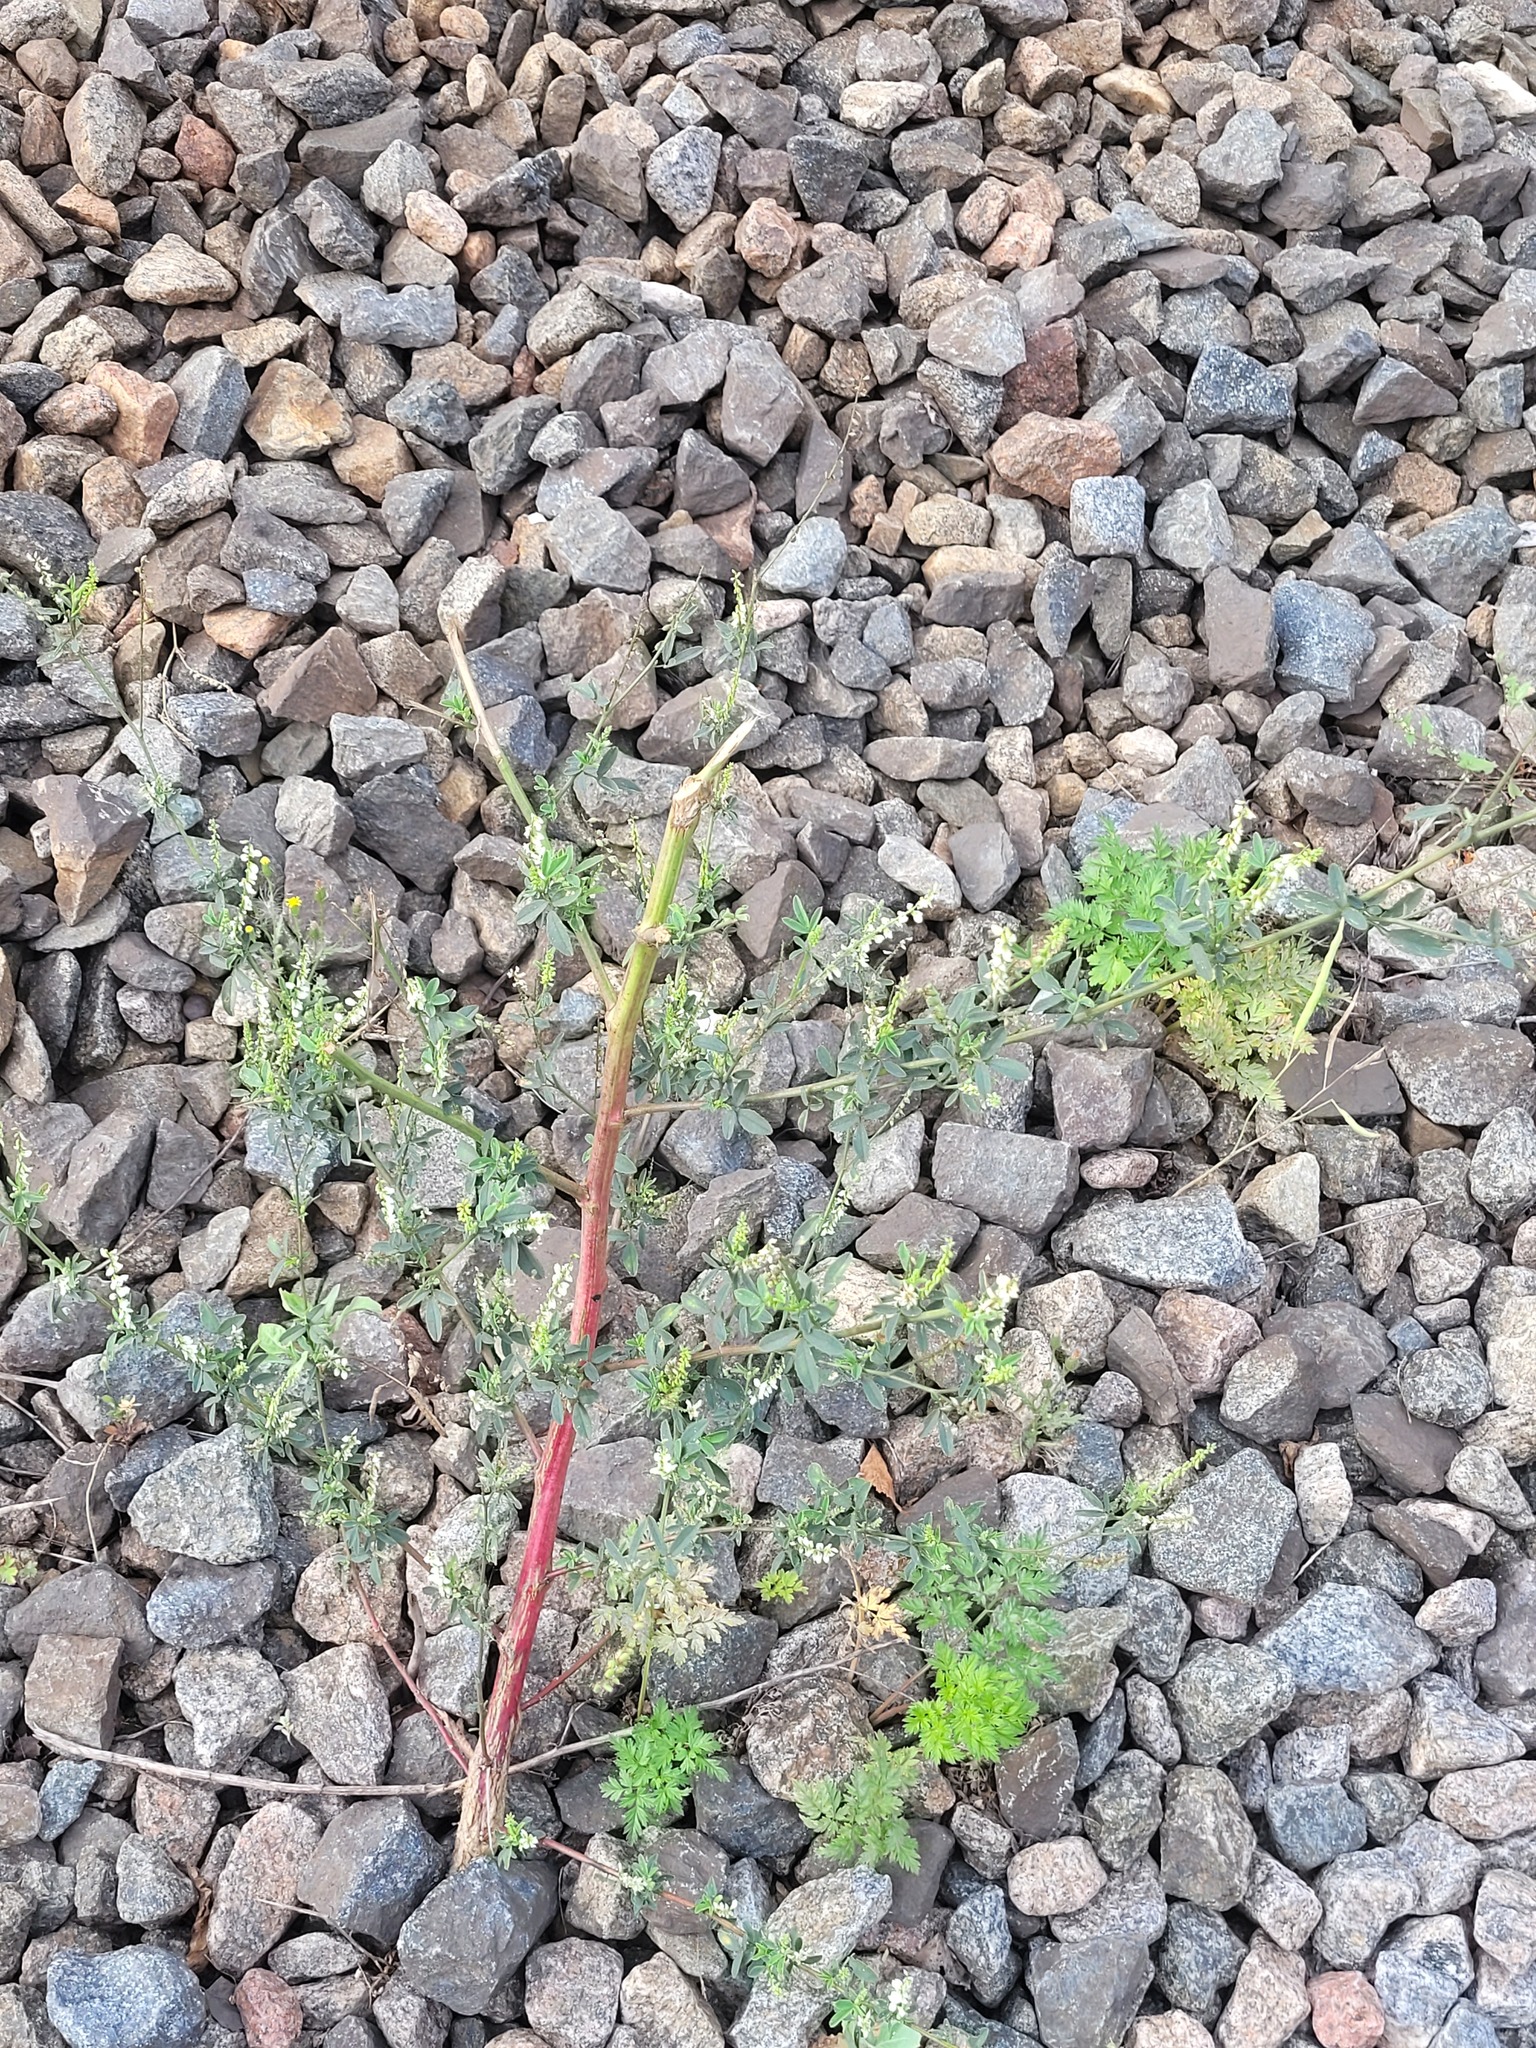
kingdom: Plantae
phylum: Tracheophyta
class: Magnoliopsida
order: Fabales
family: Fabaceae
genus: Melilotus
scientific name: Melilotus albus
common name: White melilot
